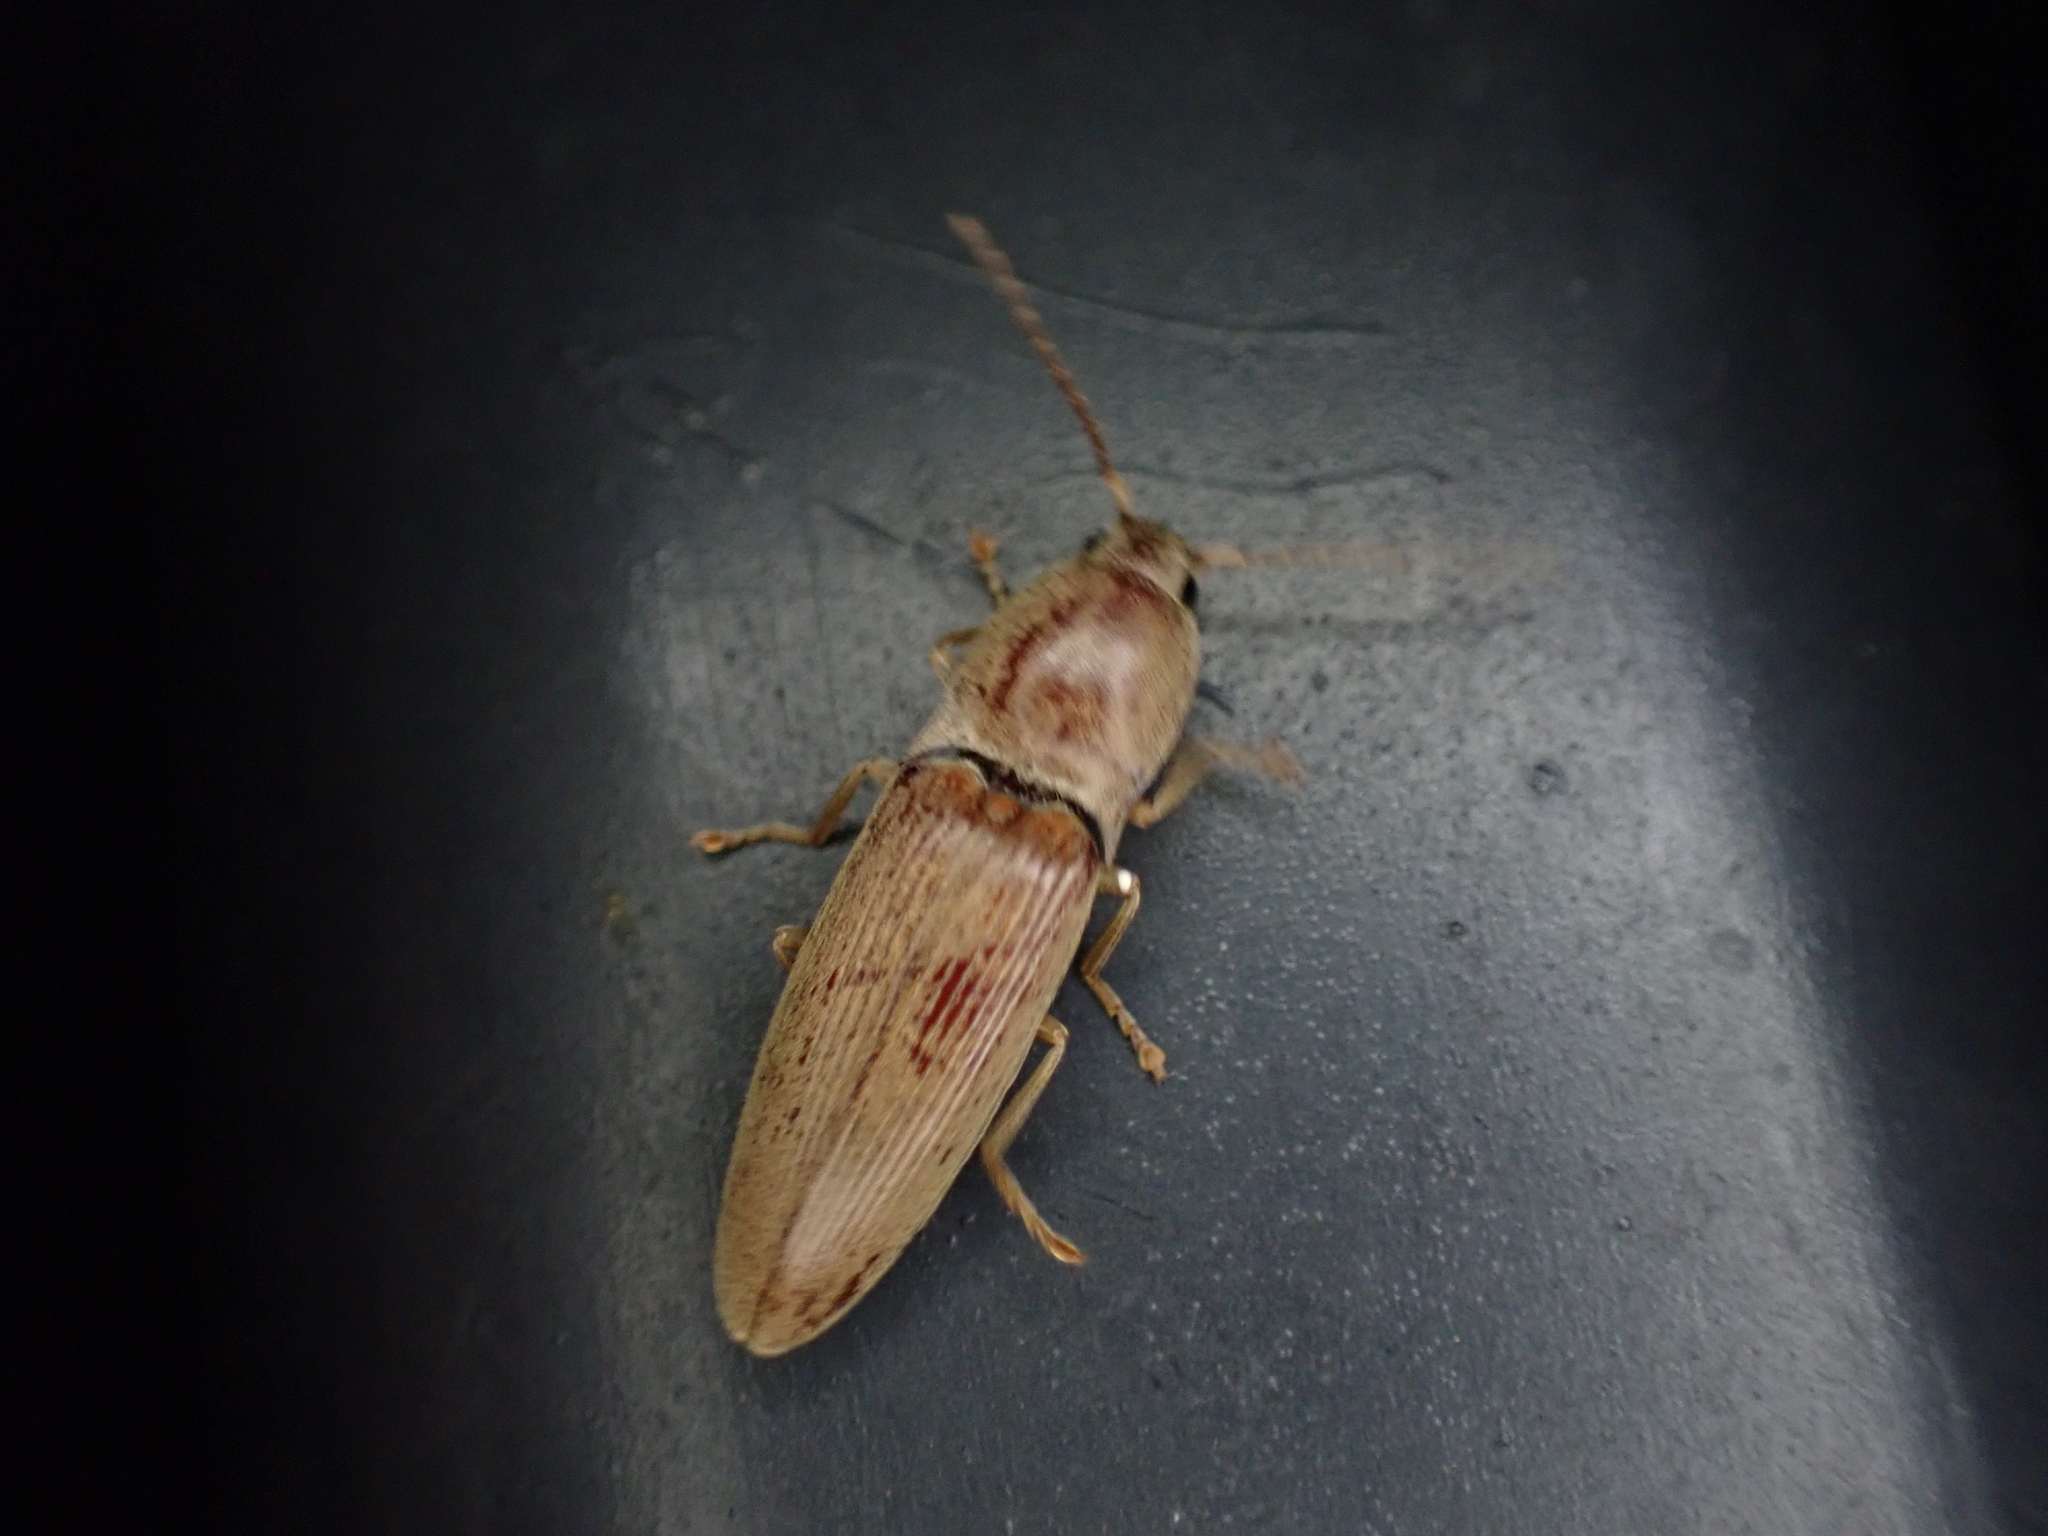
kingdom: Animalia
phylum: Arthropoda
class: Insecta
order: Coleoptera
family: Elateridae
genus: Monocrepidius
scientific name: Monocrepidius lividus
